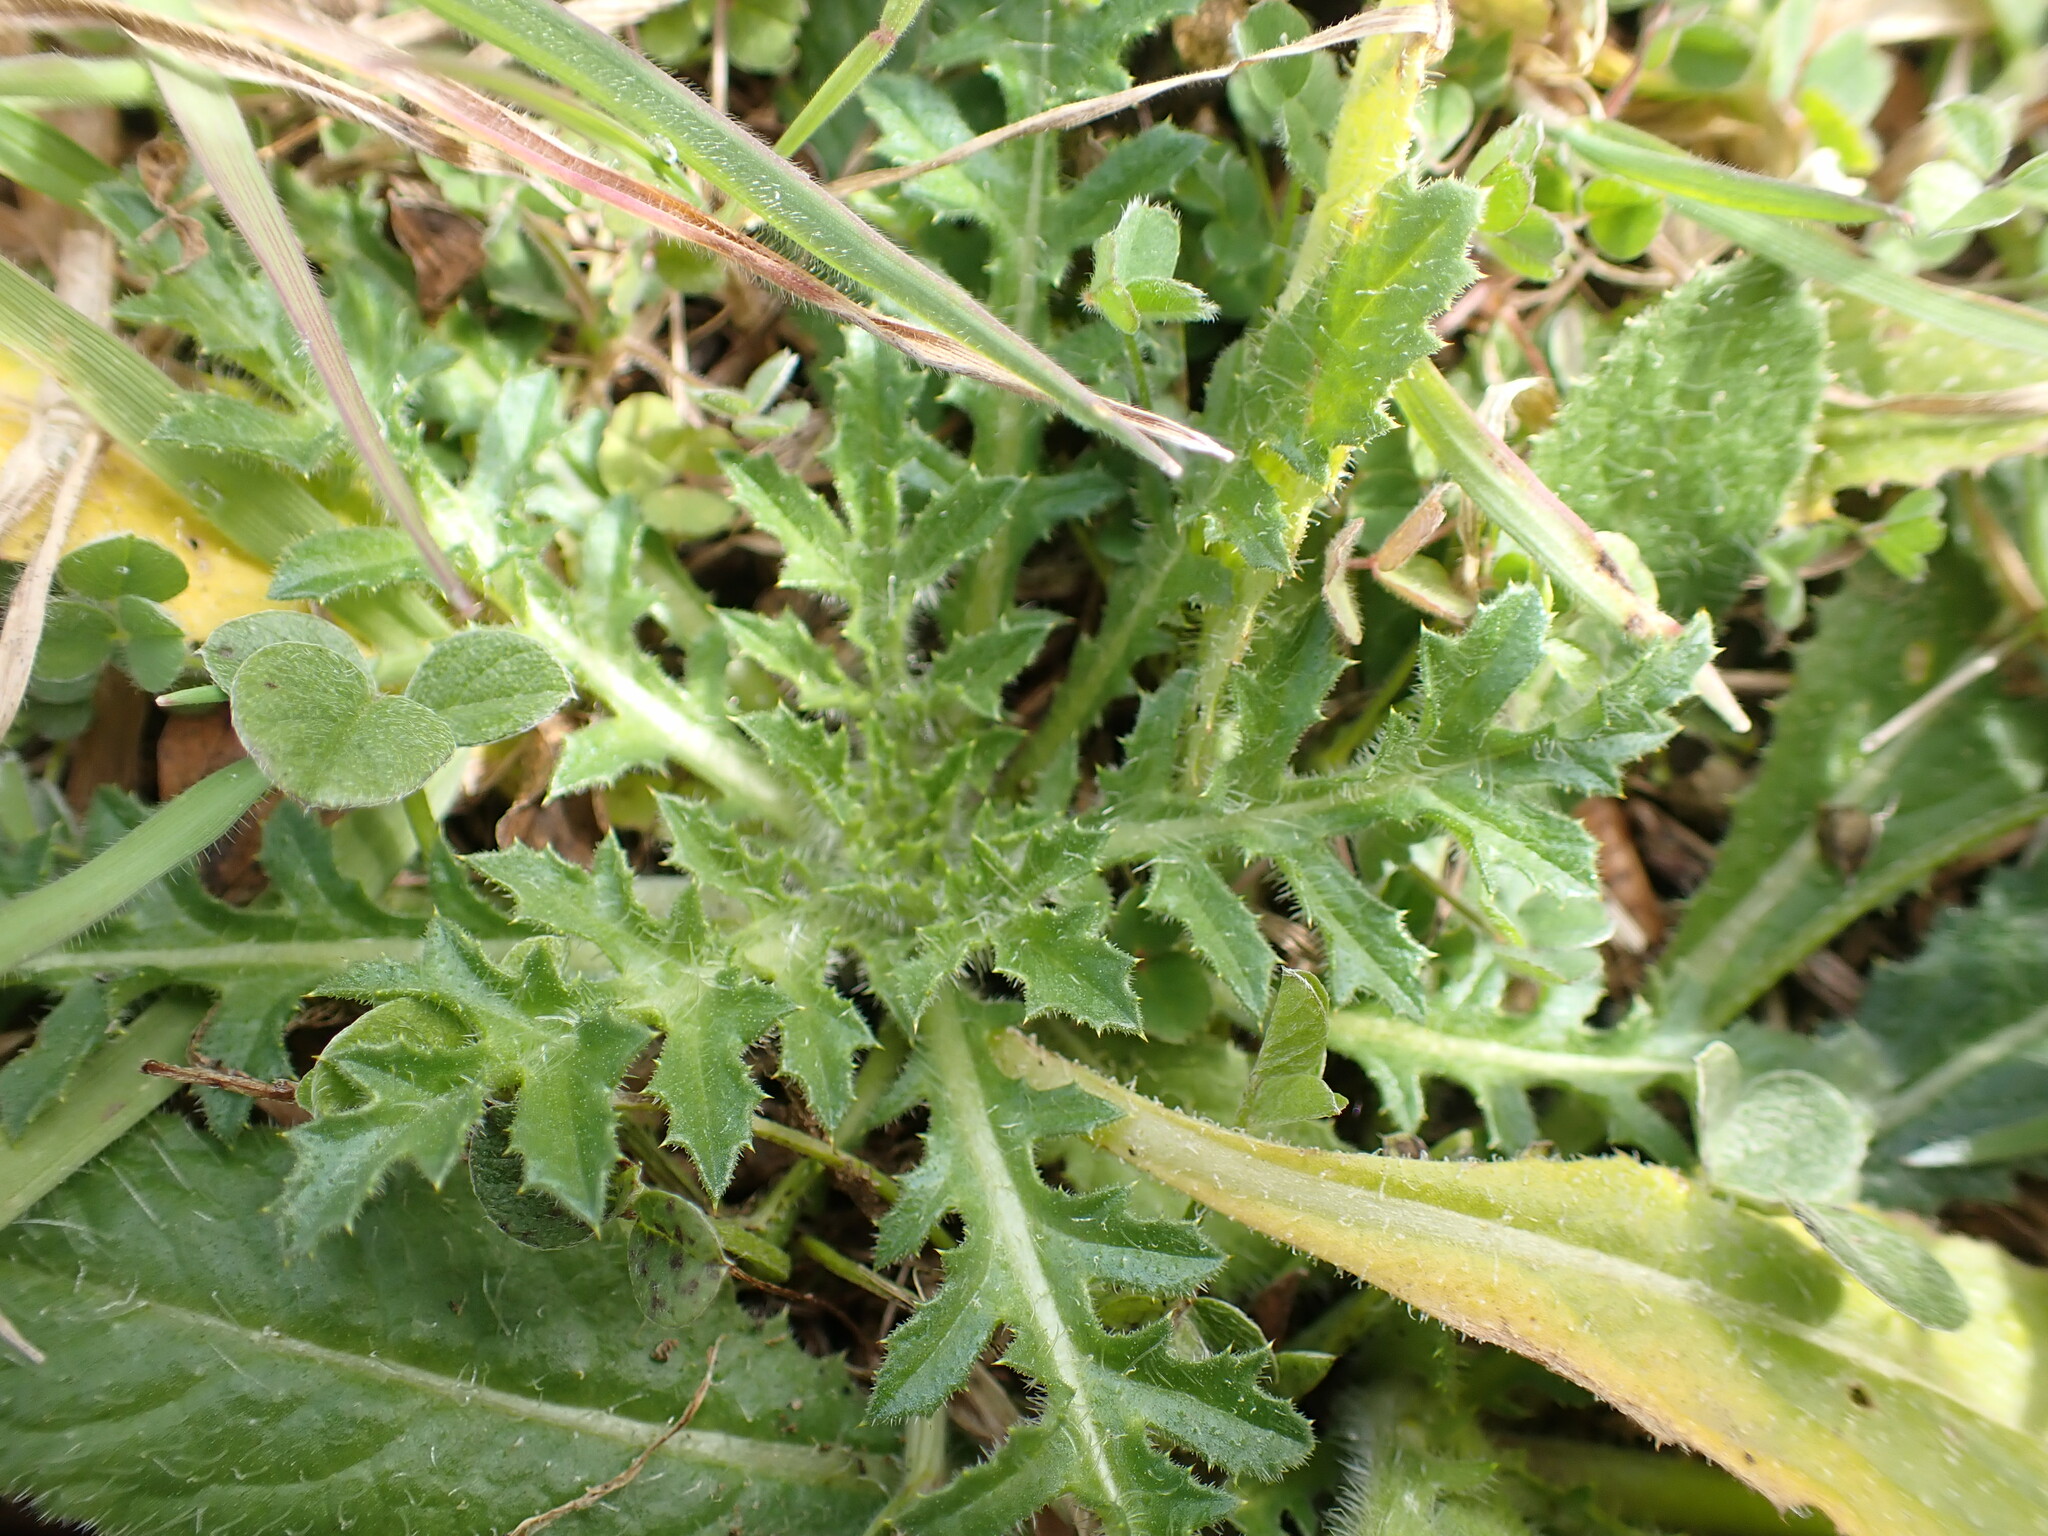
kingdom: Plantae
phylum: Tracheophyta
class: Magnoliopsida
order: Asterales
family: Asteraceae
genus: Carthamus
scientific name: Carthamus lanatus
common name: Downy safflower
